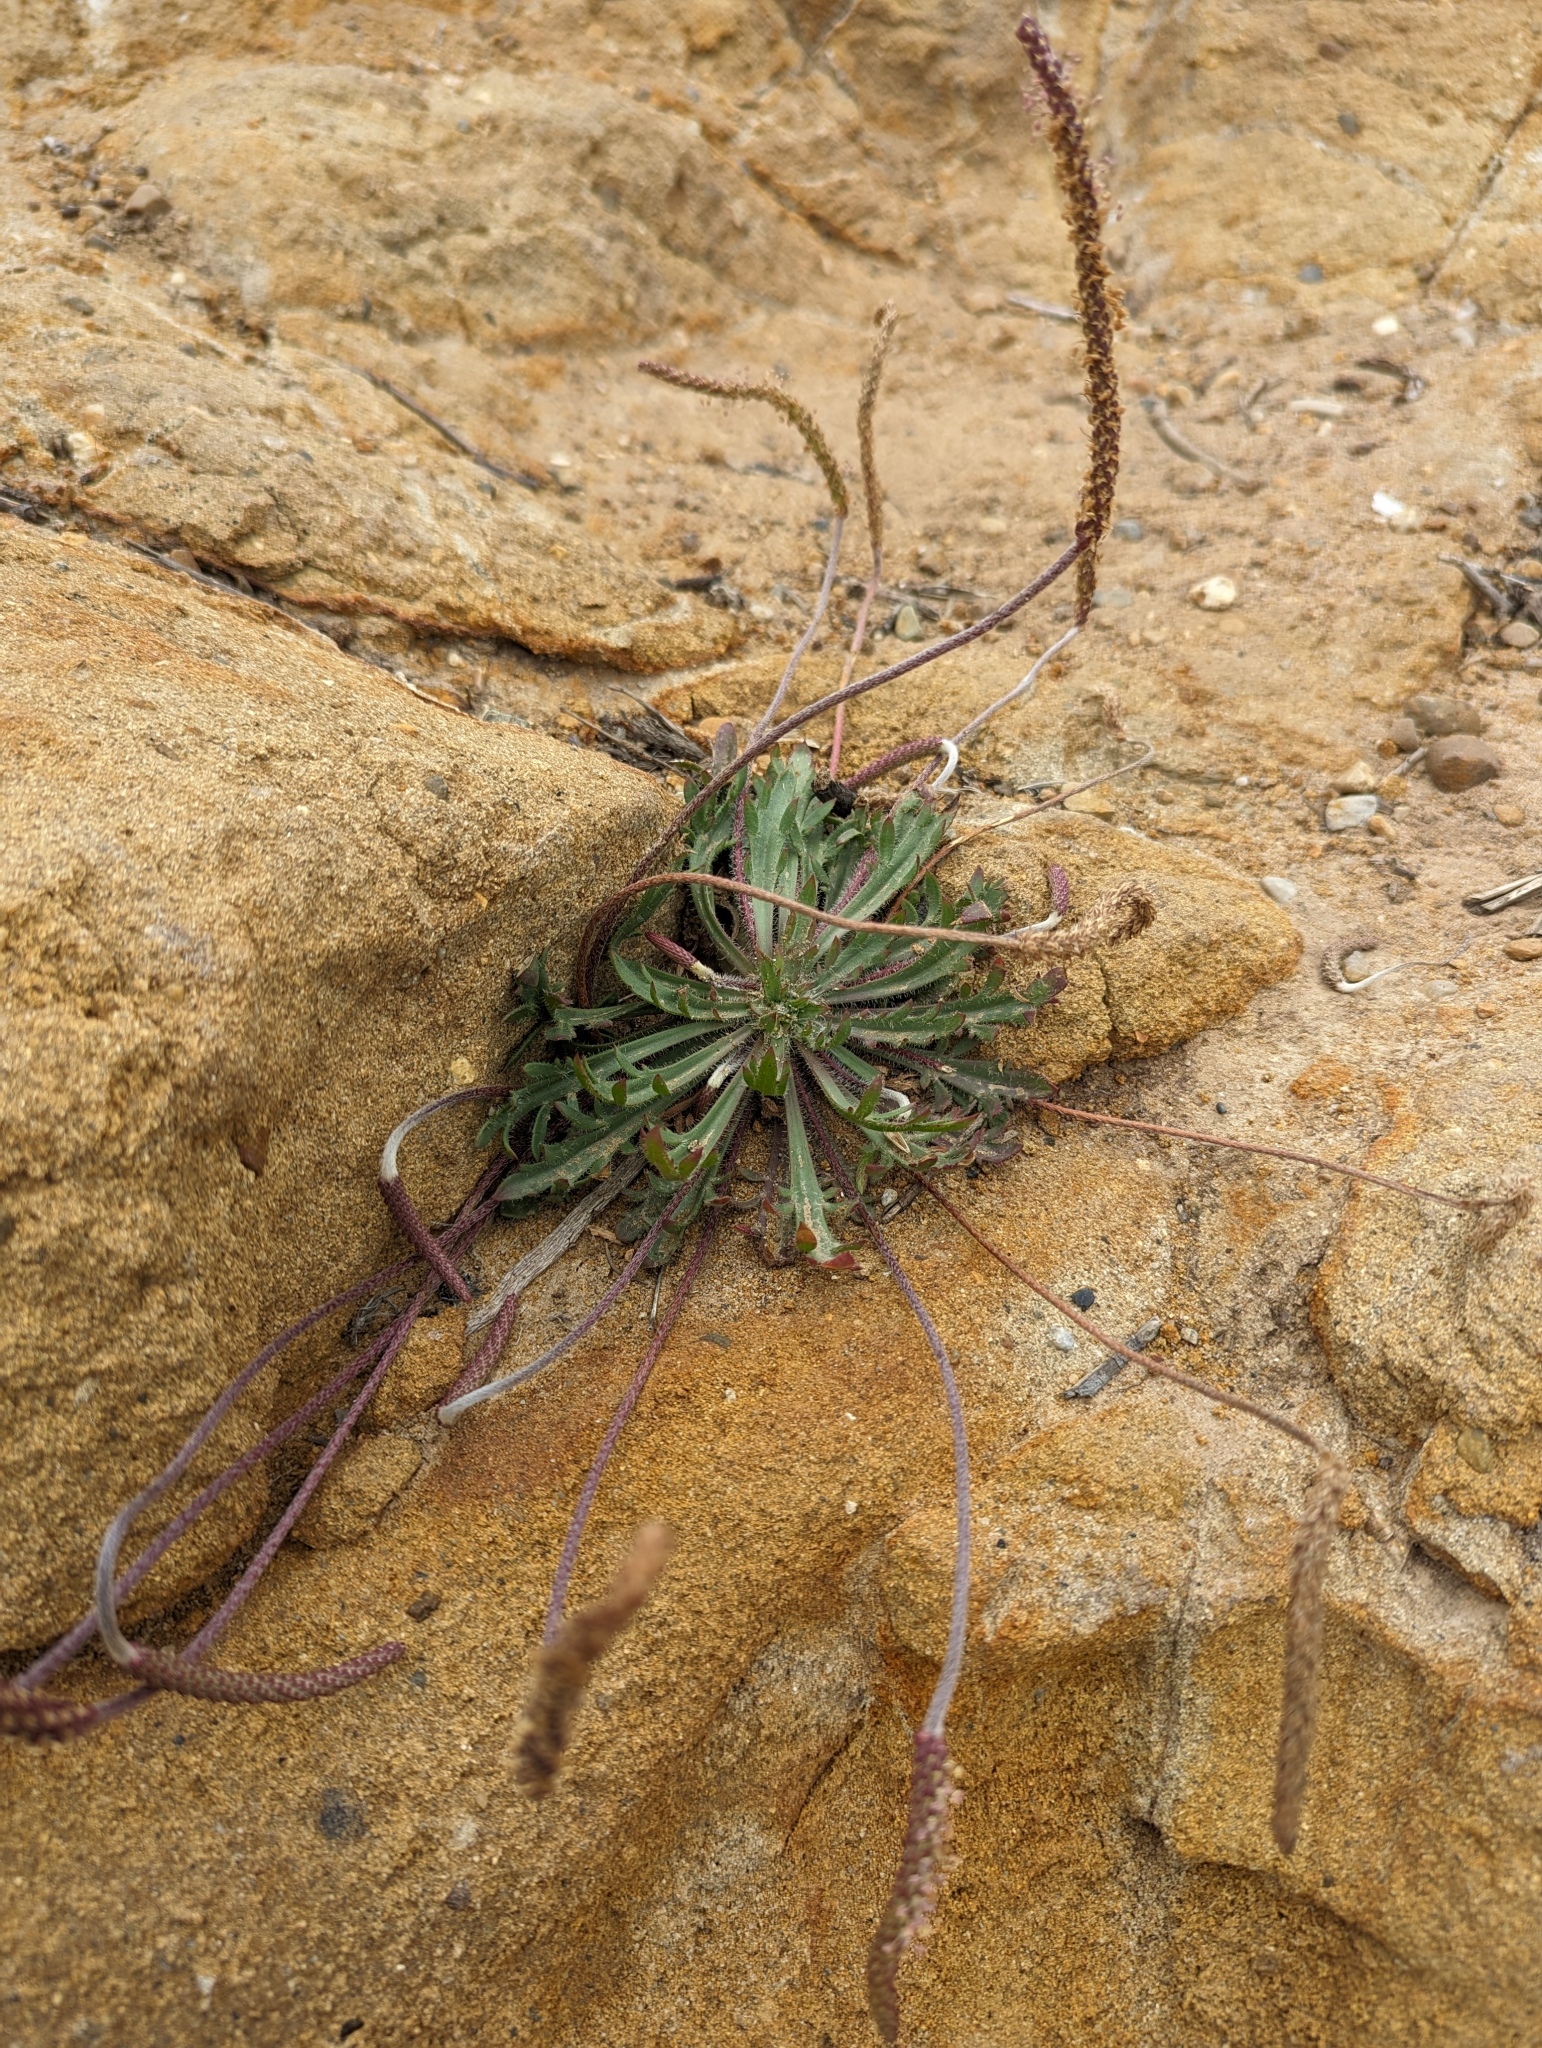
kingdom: Plantae
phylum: Tracheophyta
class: Magnoliopsida
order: Lamiales
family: Plantaginaceae
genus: Plantago
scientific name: Plantago coronopus
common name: Buck's-horn plantain
